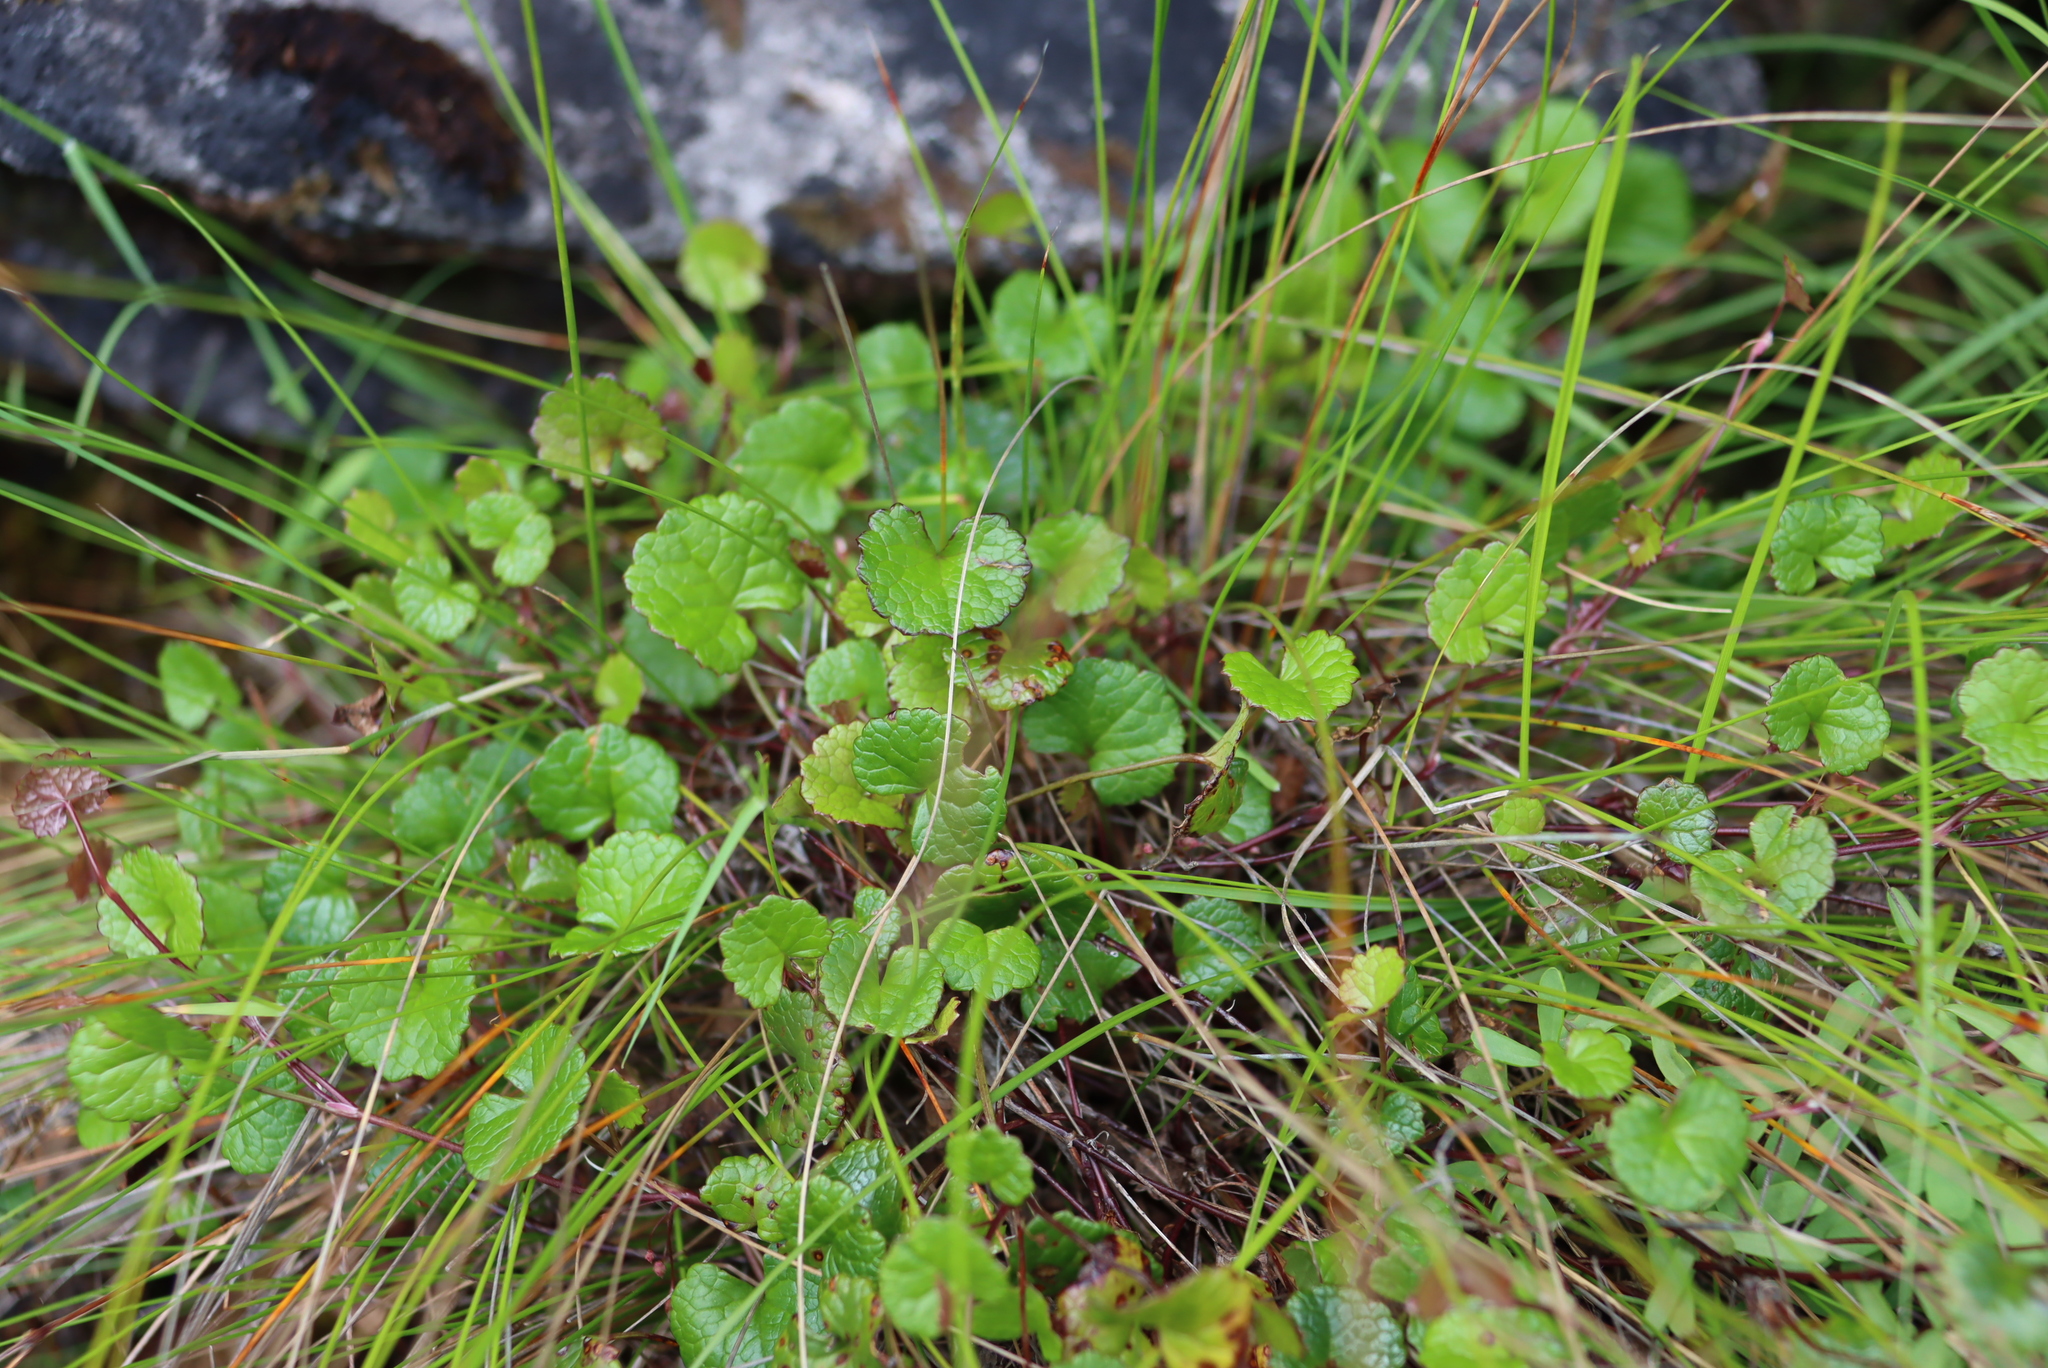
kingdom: Plantae
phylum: Tracheophyta
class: Magnoliopsida
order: Apiales
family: Apiaceae
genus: Centella
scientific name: Centella eriantha
